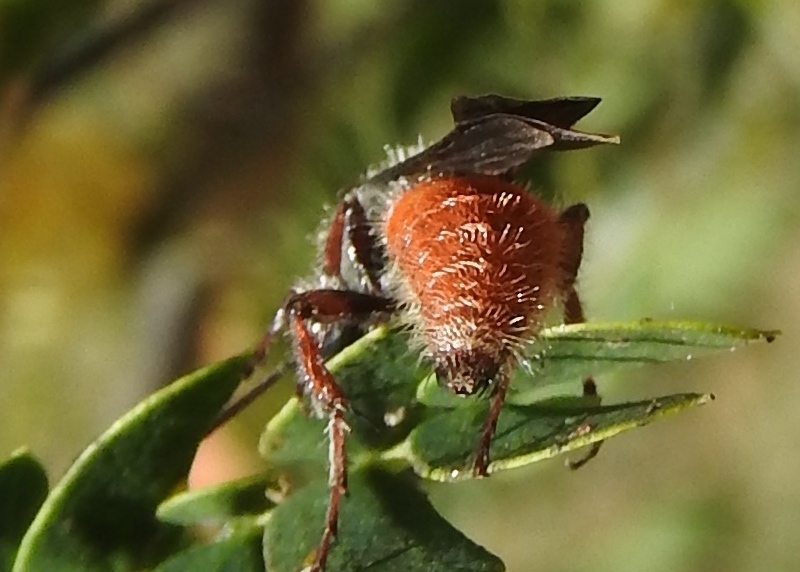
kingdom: Animalia
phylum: Arthropoda
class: Insecta
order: Hymenoptera
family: Mutillidae
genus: Dasymutilla
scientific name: Dasymutilla foxi
